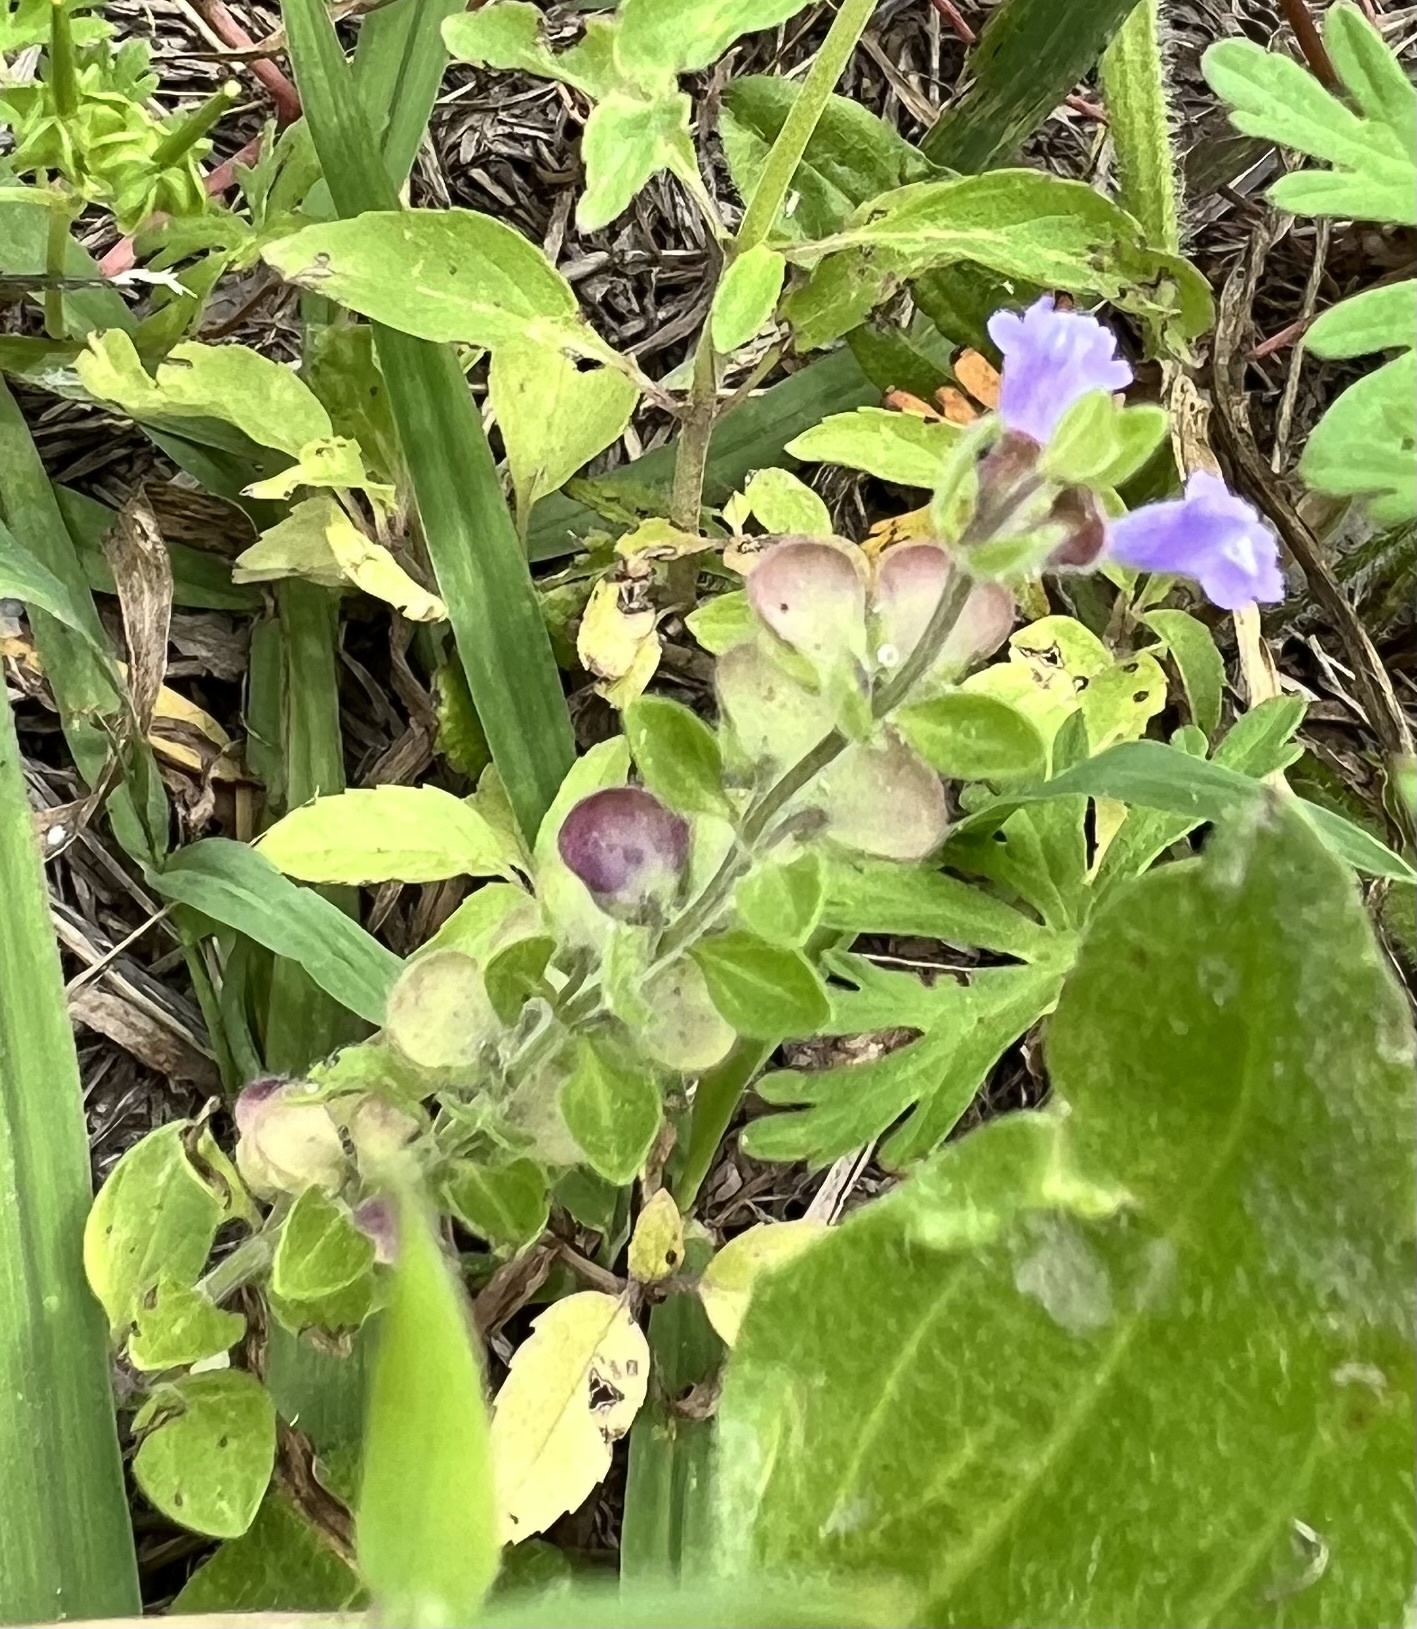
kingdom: Plantae
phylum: Tracheophyta
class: Magnoliopsida
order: Lamiales
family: Lamiaceae
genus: Scutellaria
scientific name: Scutellaria drummondii
